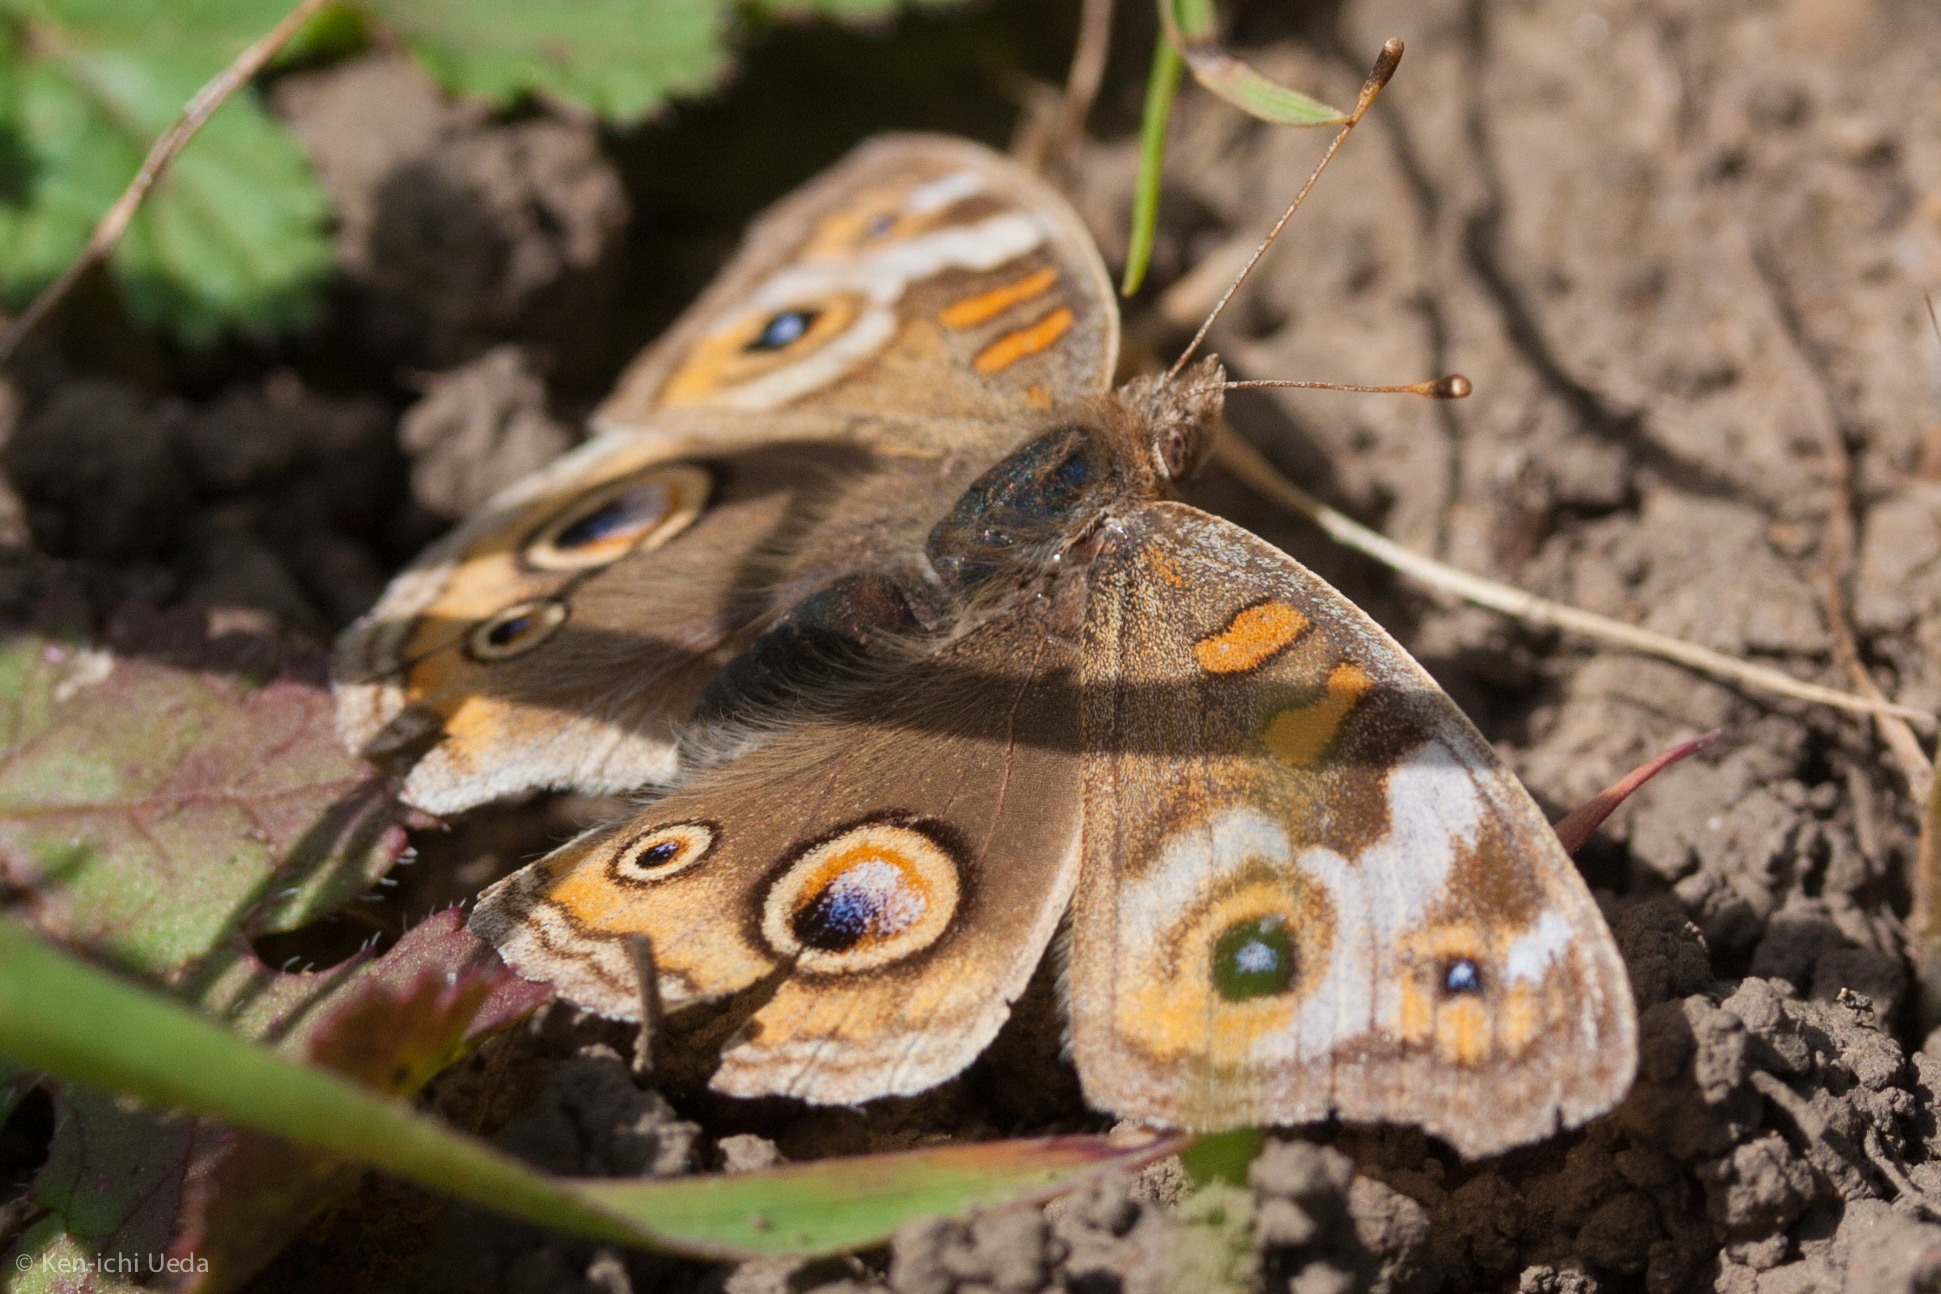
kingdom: Animalia
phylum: Arthropoda
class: Insecta
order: Lepidoptera
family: Nymphalidae
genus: Junonia
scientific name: Junonia grisea
